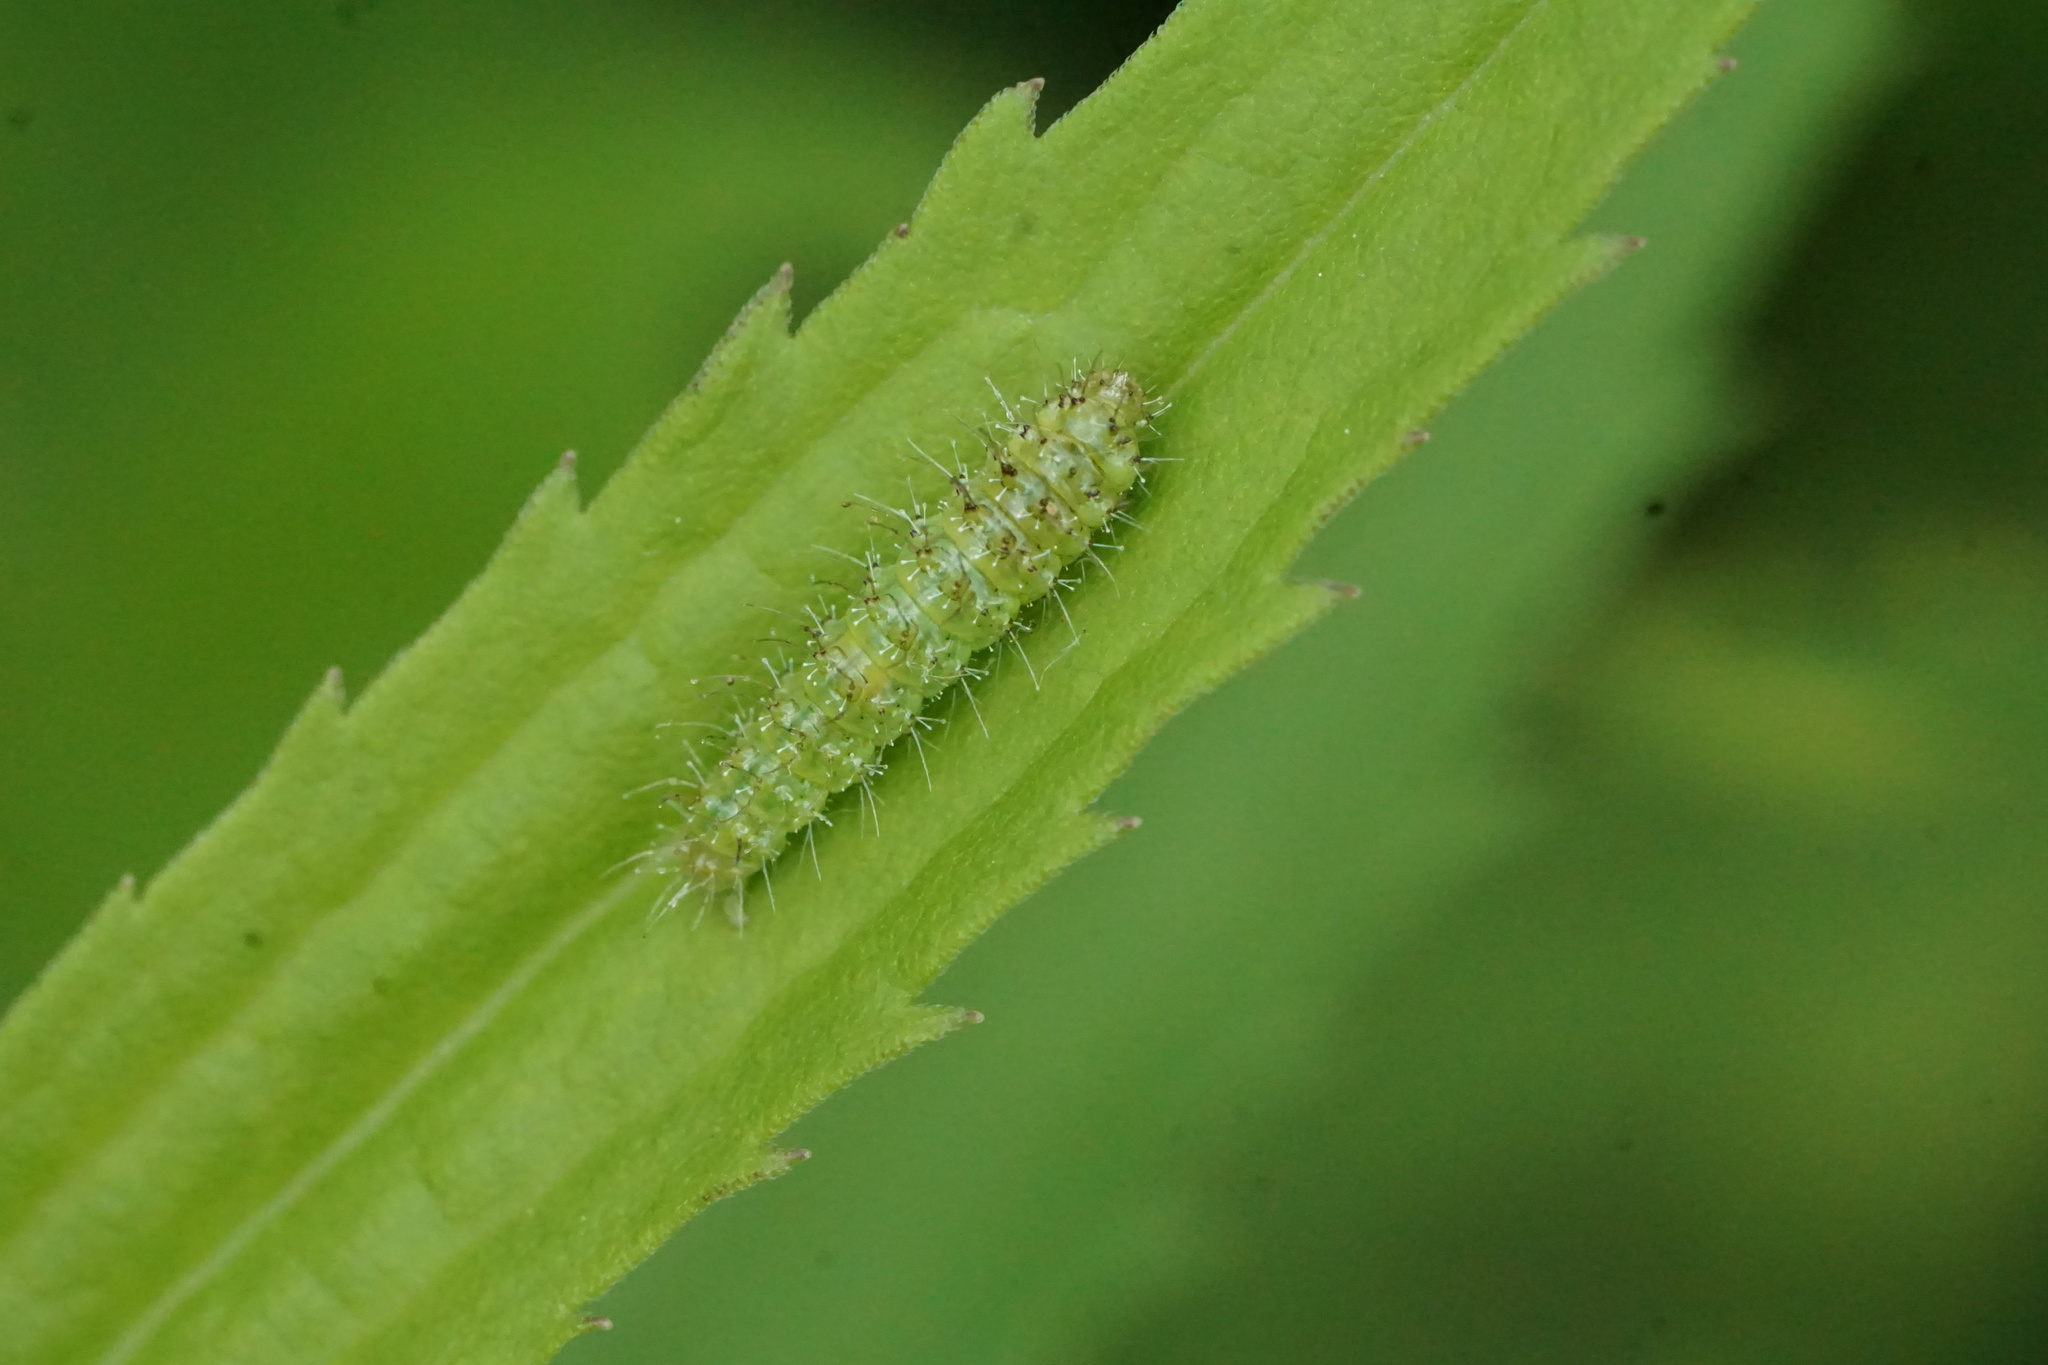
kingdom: Animalia
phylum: Arthropoda
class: Insecta
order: Lepidoptera
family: Pterophoridae
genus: Dejongia
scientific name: Dejongia lobidactylus
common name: Lobed plume moth
